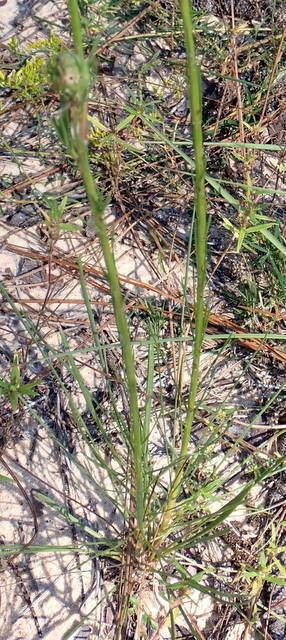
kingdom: Plantae
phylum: Tracheophyta
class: Magnoliopsida
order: Asterales
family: Asteraceae
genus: Liatris
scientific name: Liatris tenuifolia
